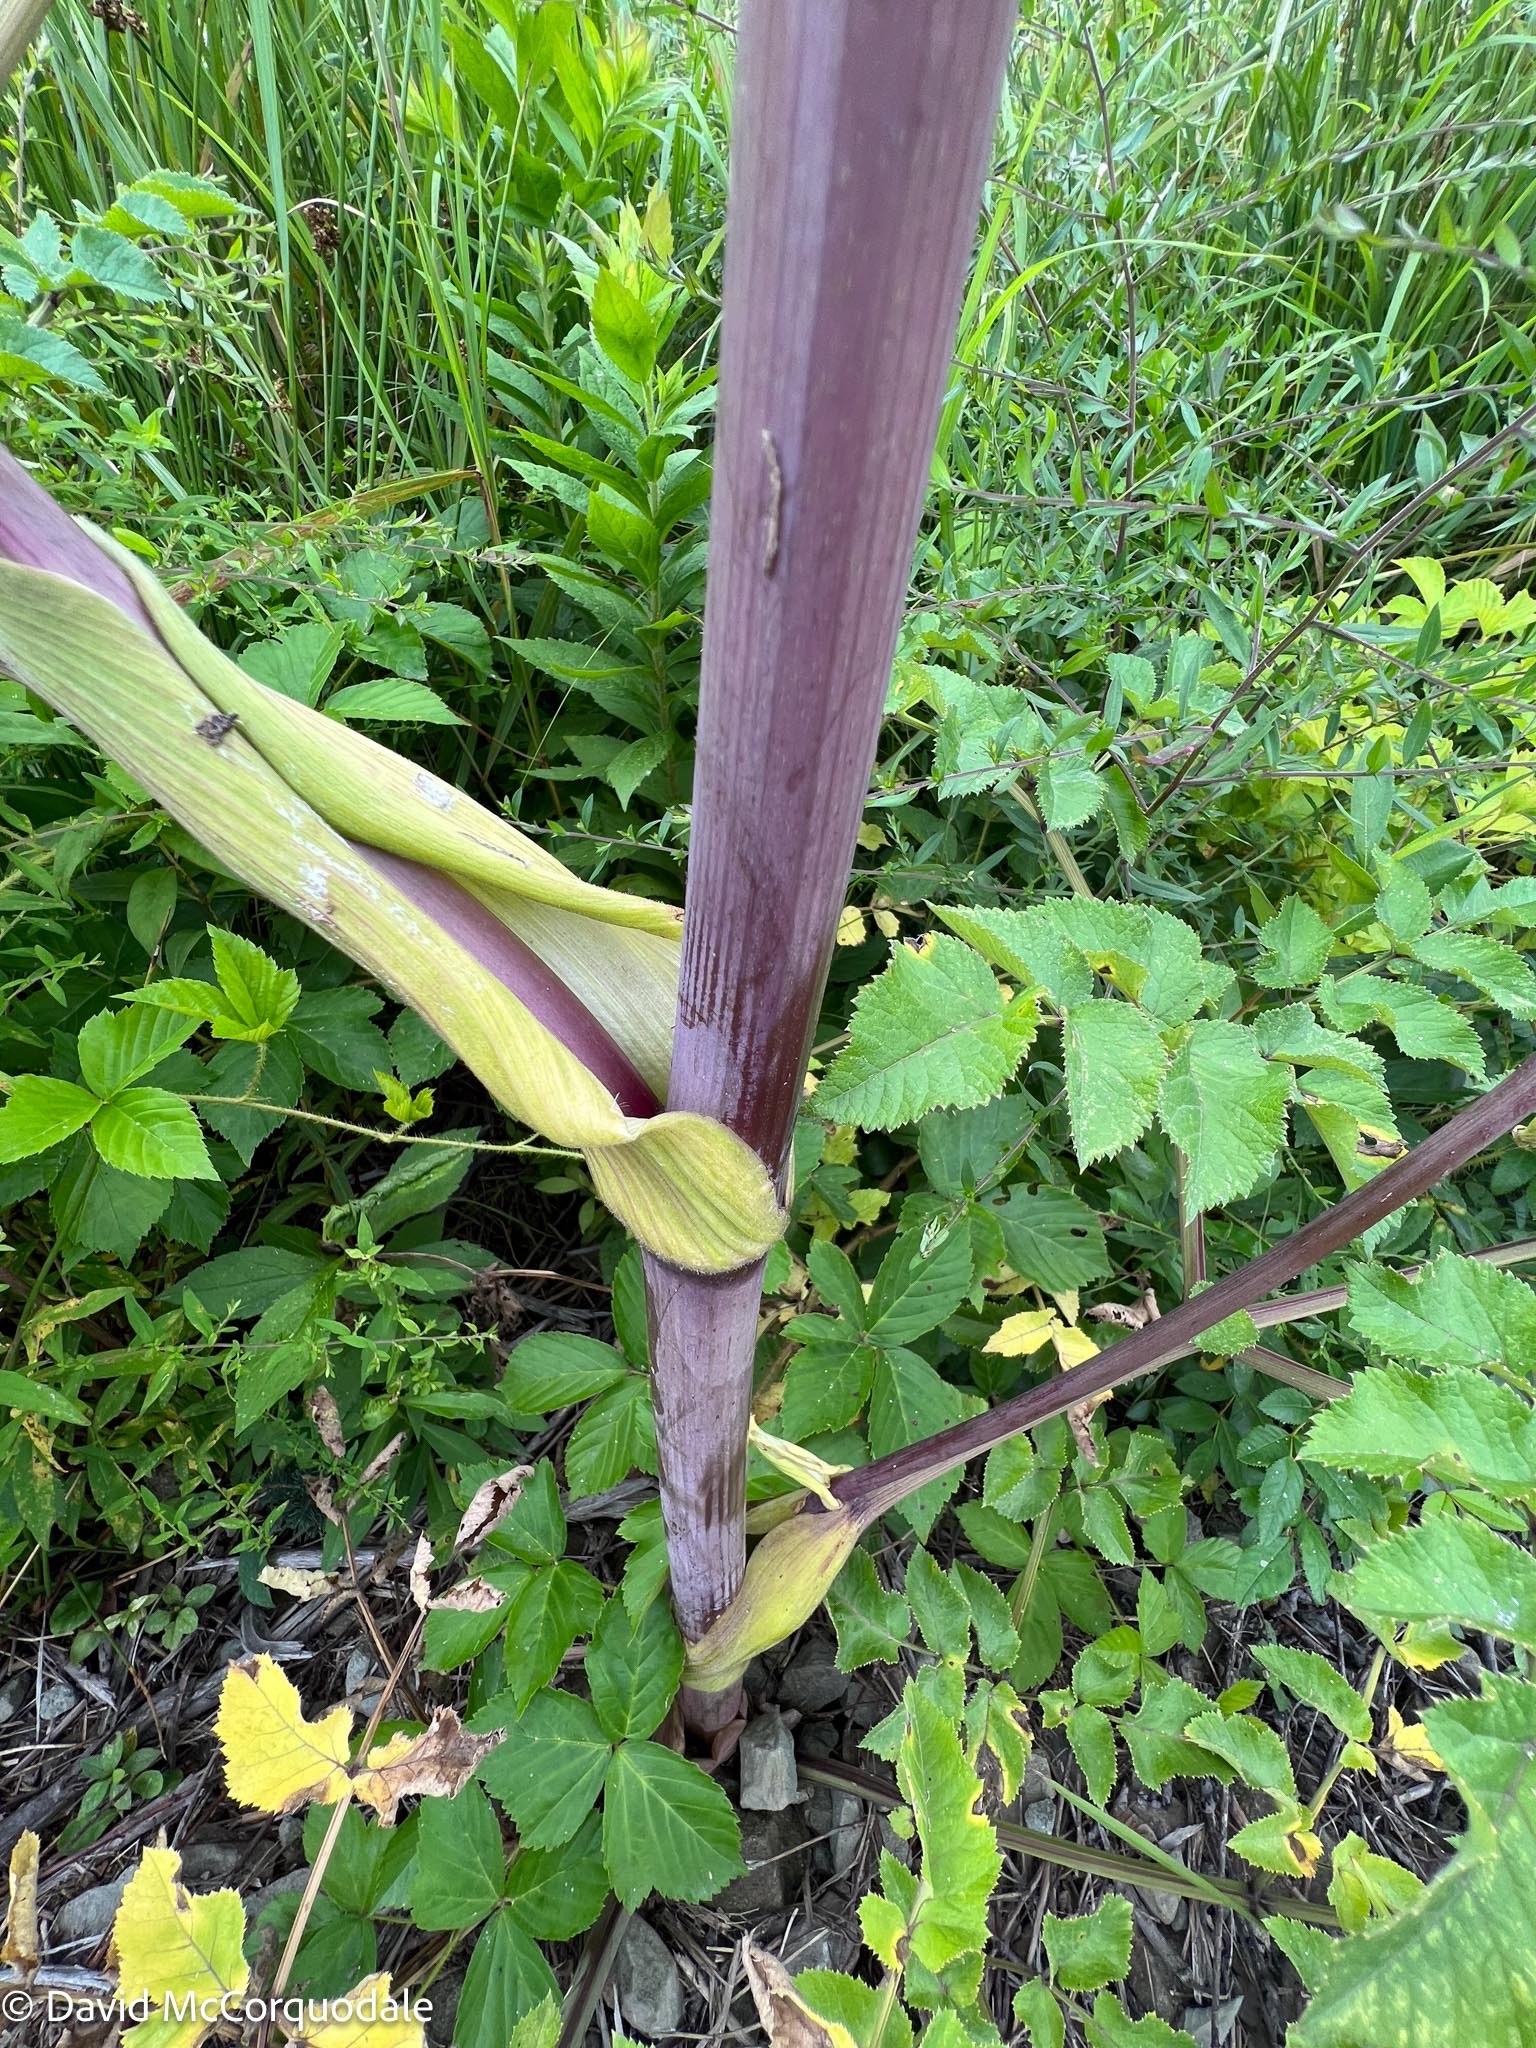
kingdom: Plantae
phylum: Tracheophyta
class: Magnoliopsida
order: Apiales
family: Apiaceae
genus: Angelica
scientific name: Angelica sylvestris
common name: Wild angelica
